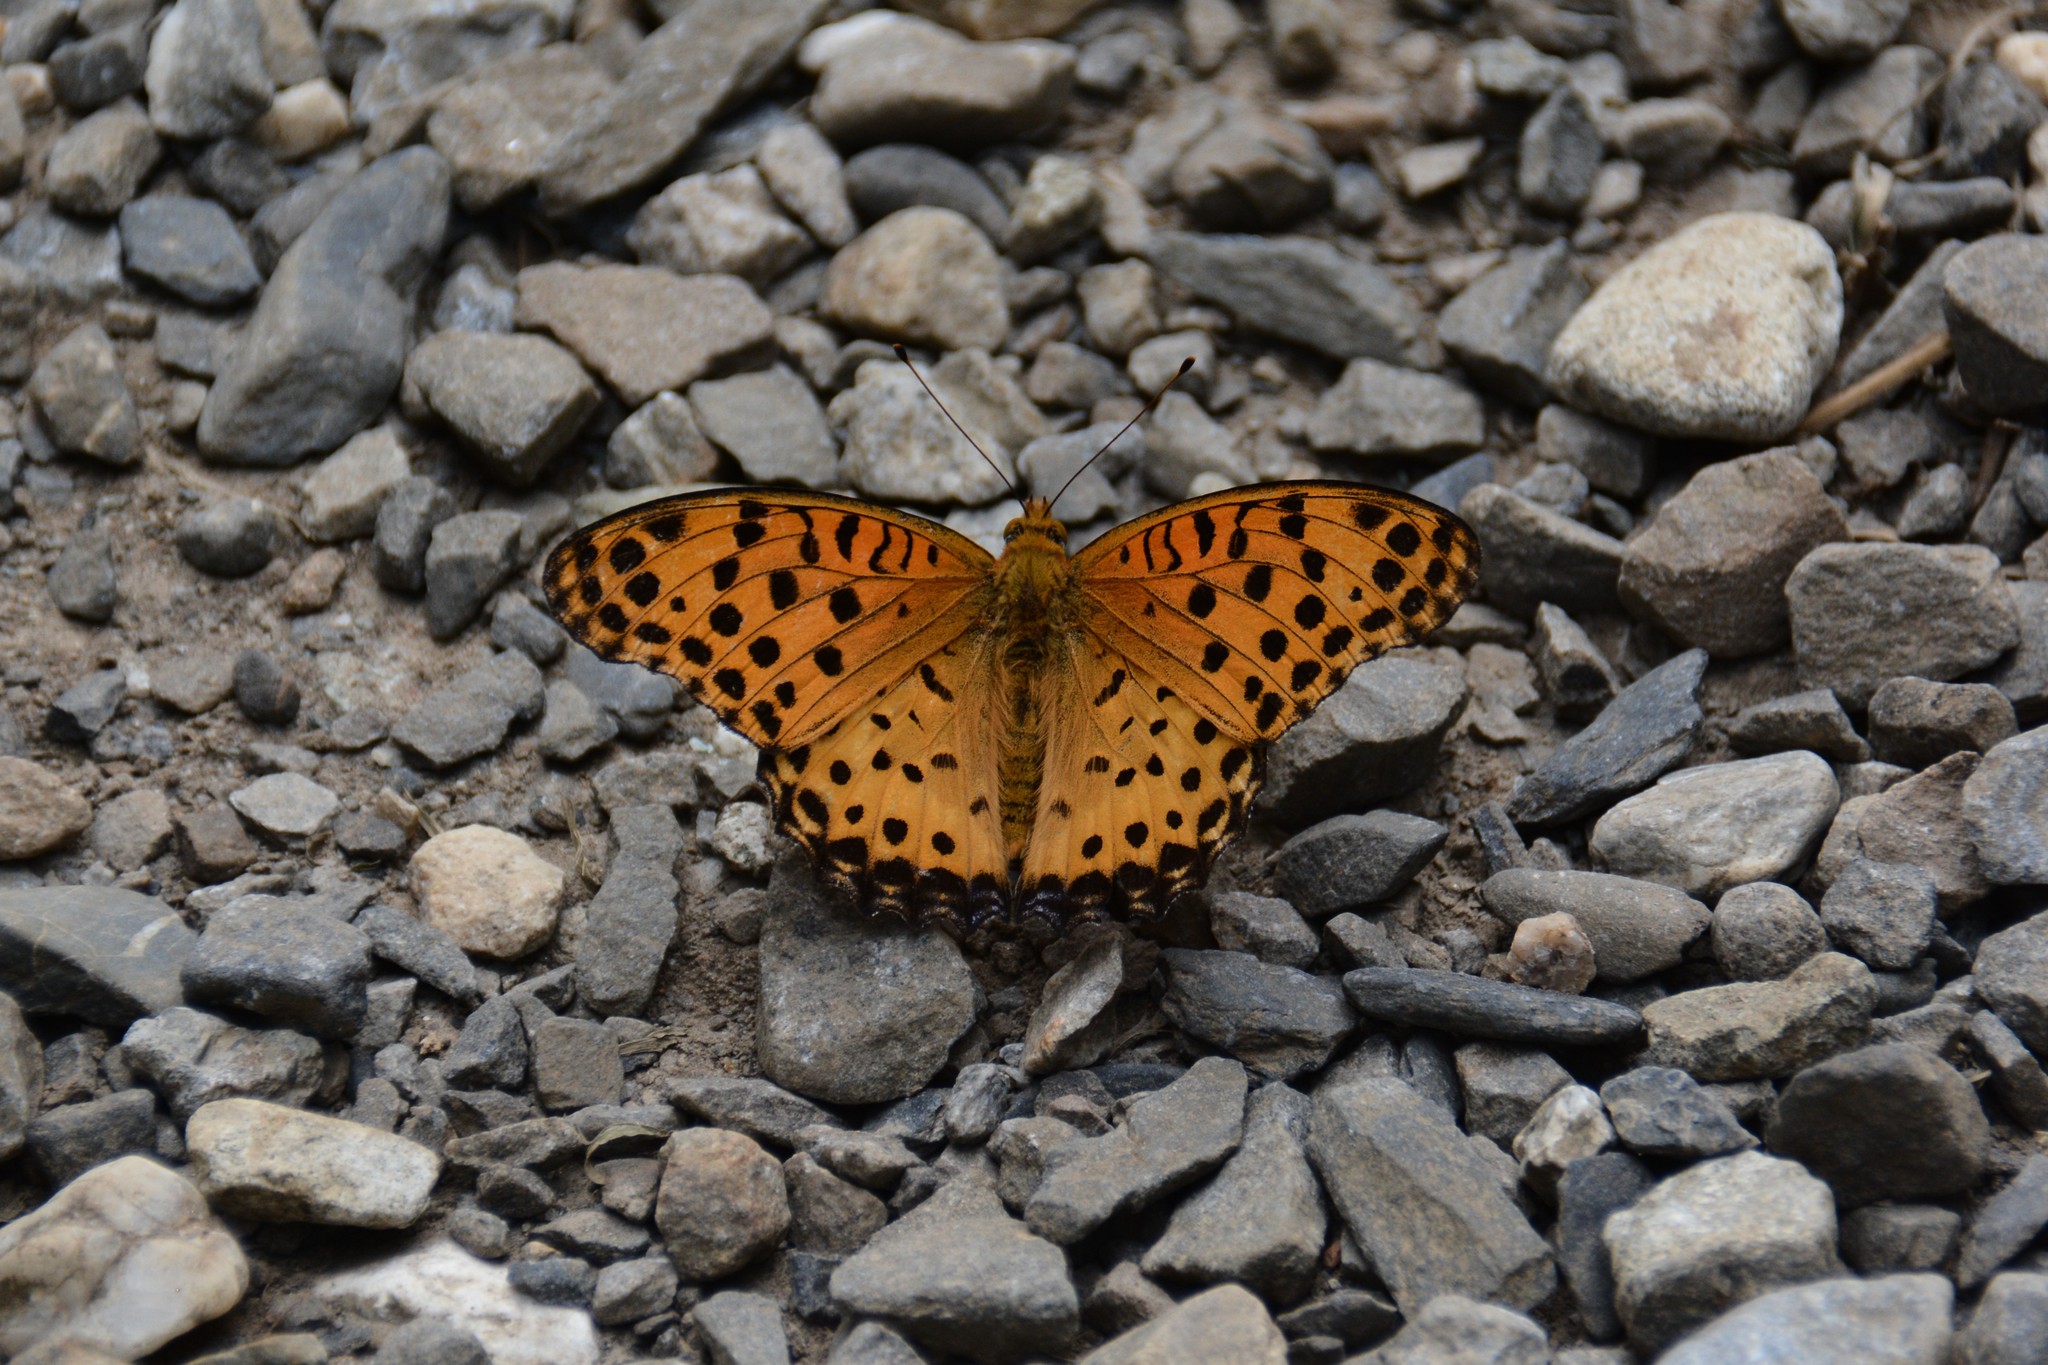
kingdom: Animalia
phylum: Arthropoda
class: Insecta
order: Lepidoptera
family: Nymphalidae
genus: Argynnis
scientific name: Argynnis hyperbius
